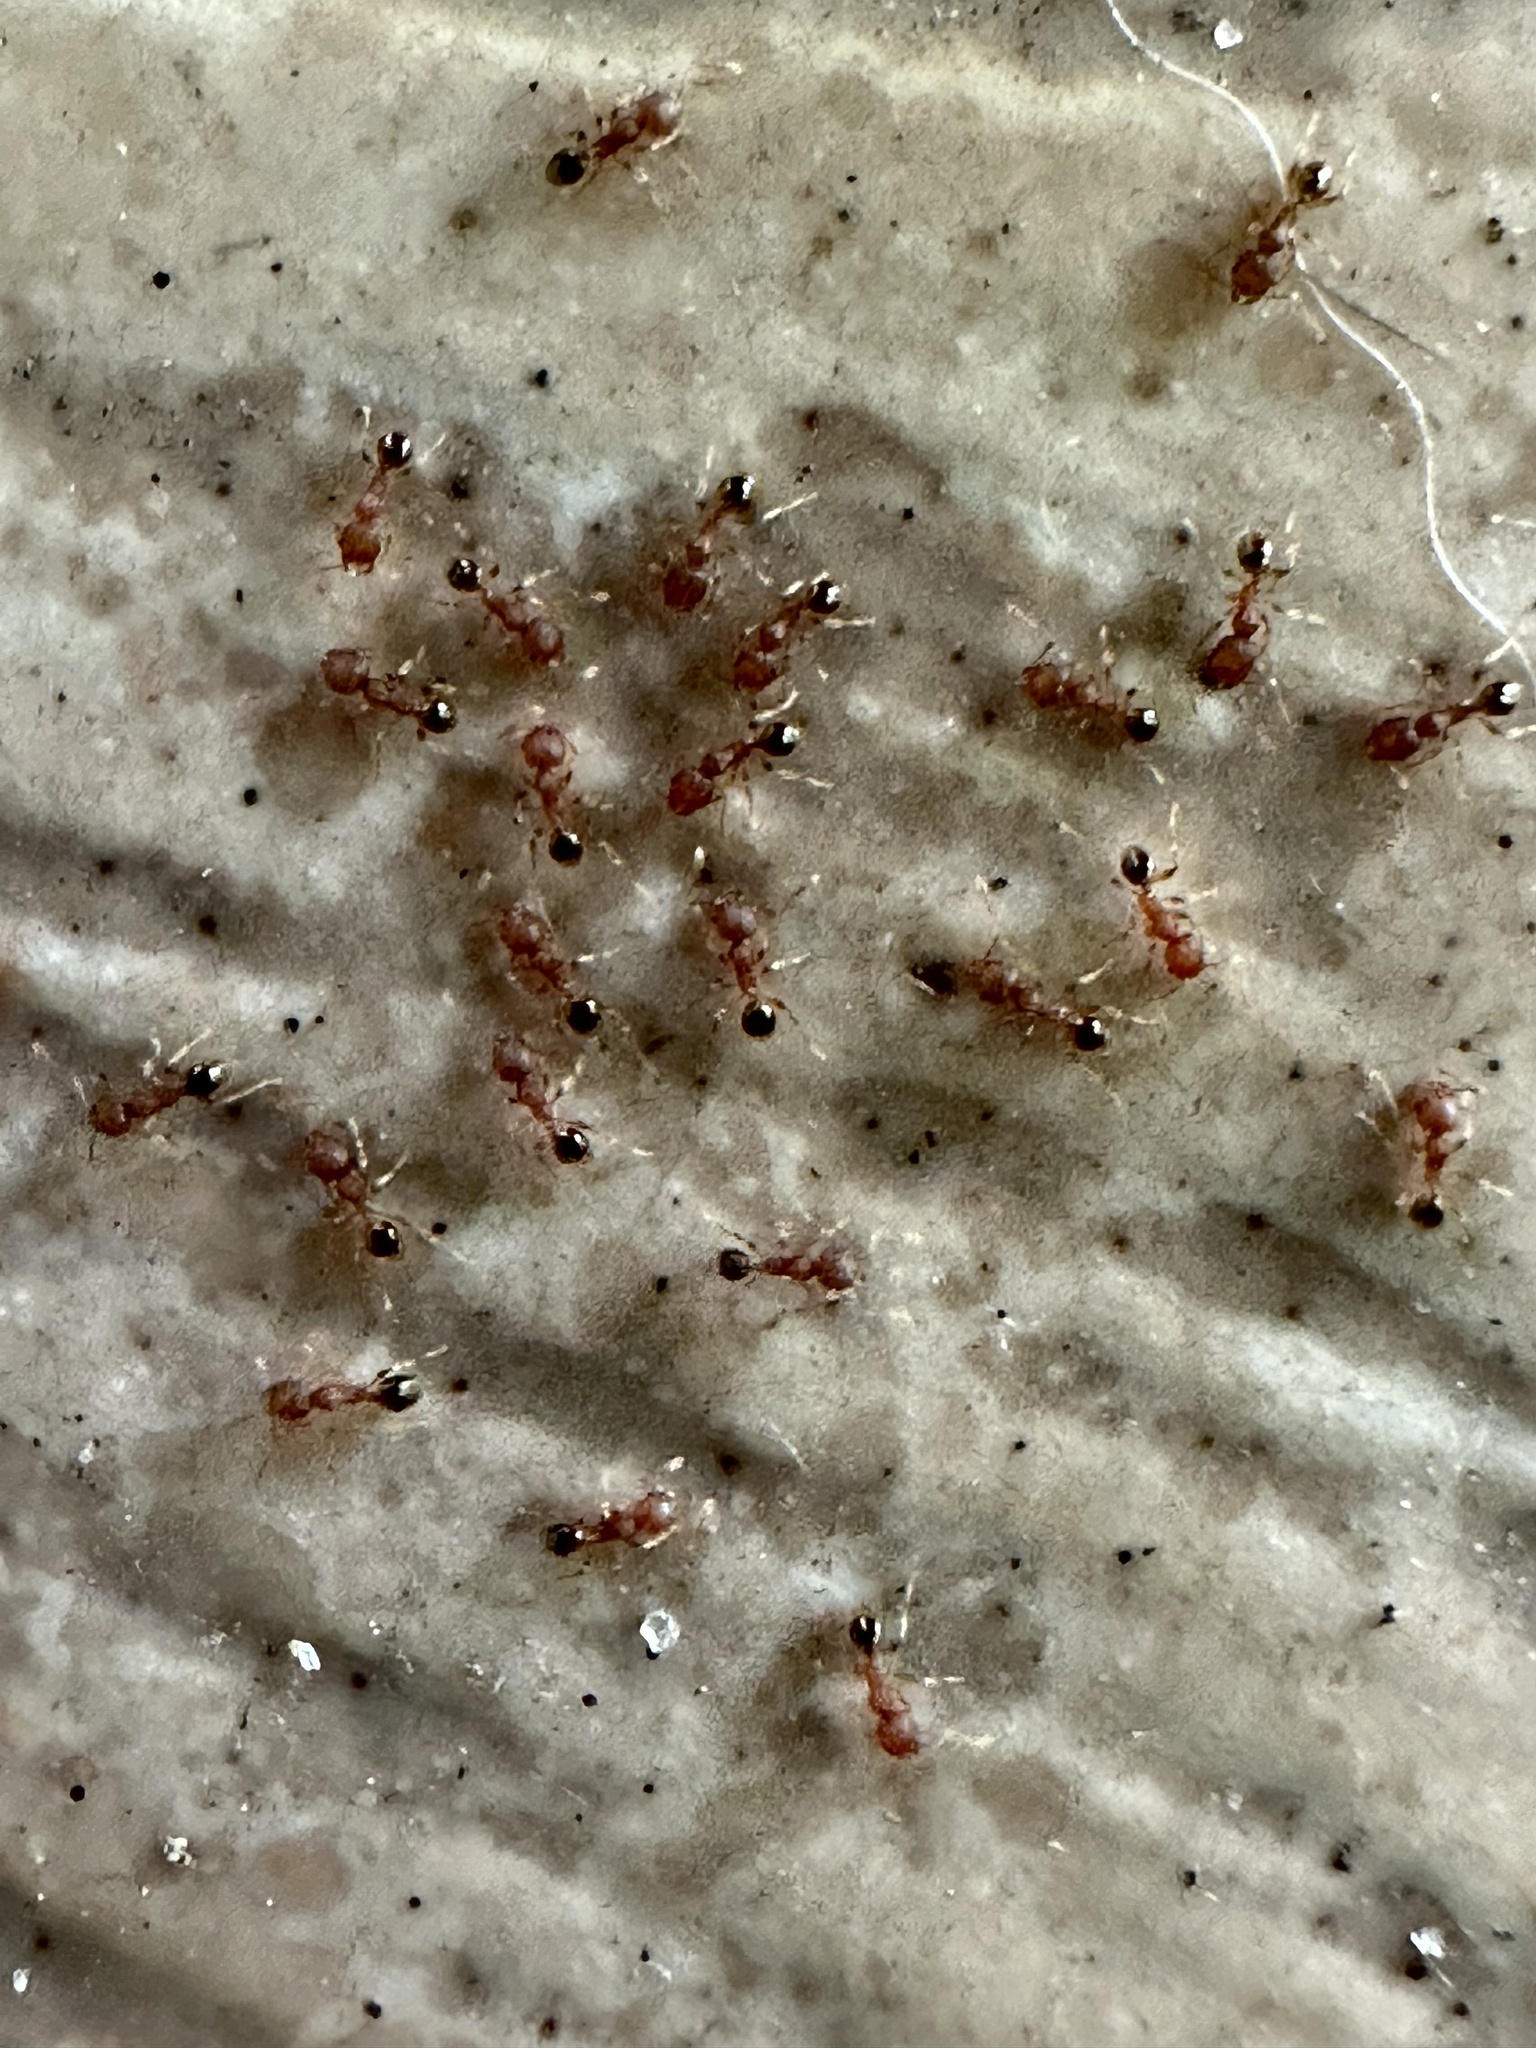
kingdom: Animalia
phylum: Arthropoda
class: Insecta
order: Hymenoptera
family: Formicidae
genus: Pheidole
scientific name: Pheidole parva
